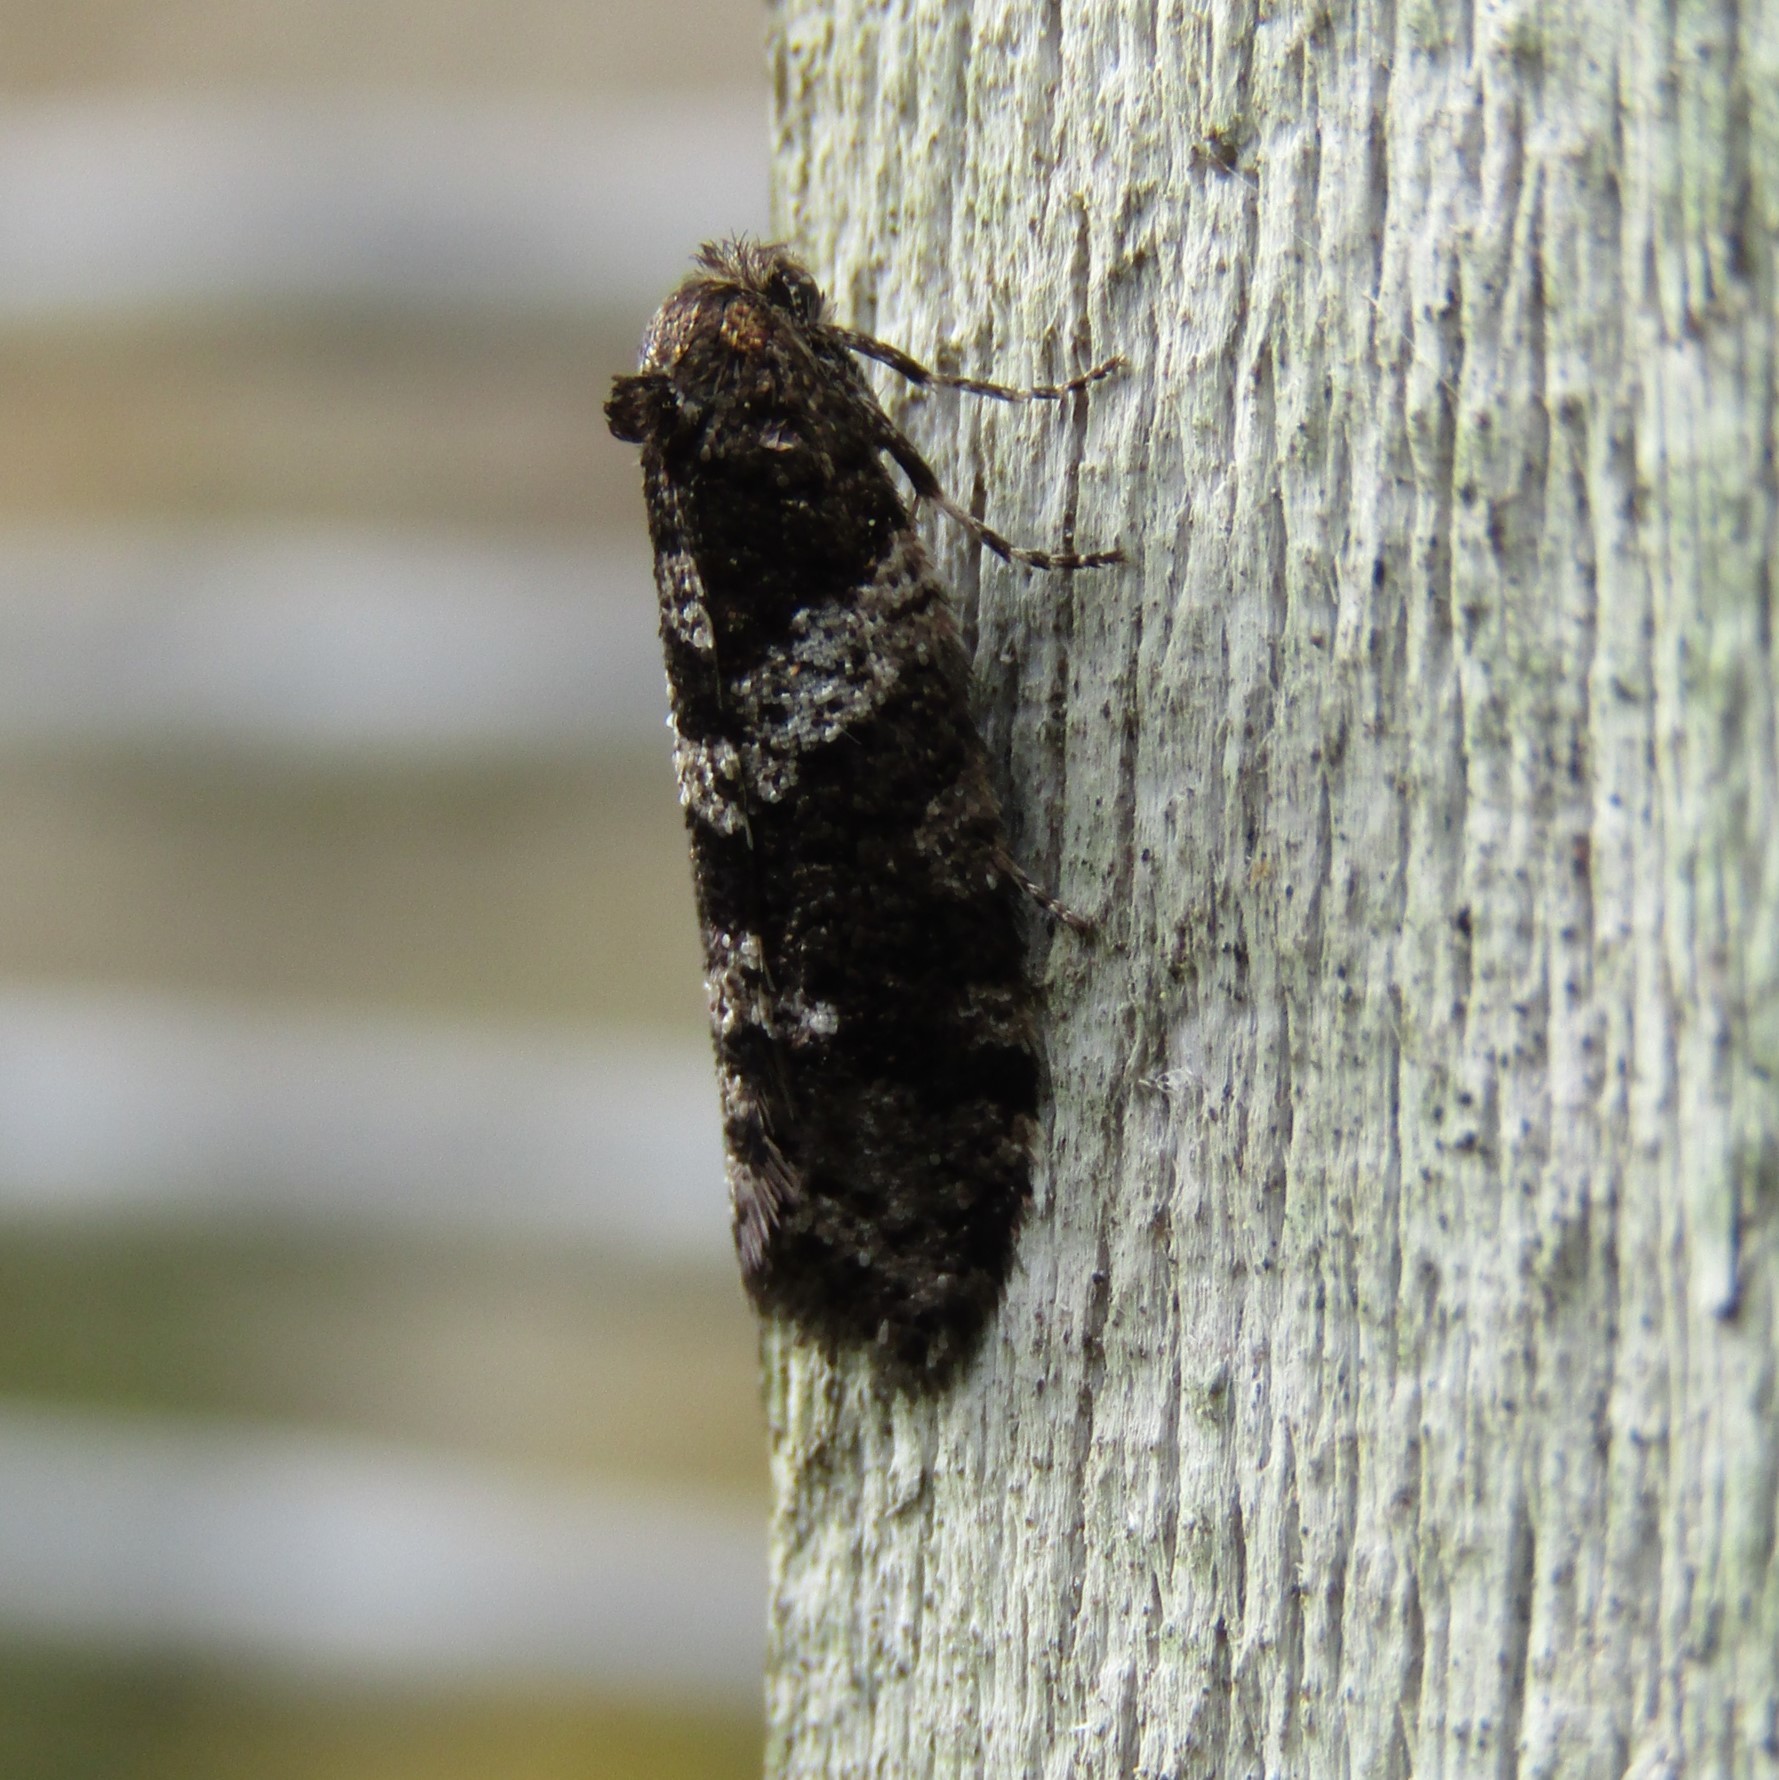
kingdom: Animalia
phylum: Arthropoda
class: Insecta
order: Lepidoptera
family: Psychidae
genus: Lepidoscia
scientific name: Lepidoscia heliochares
